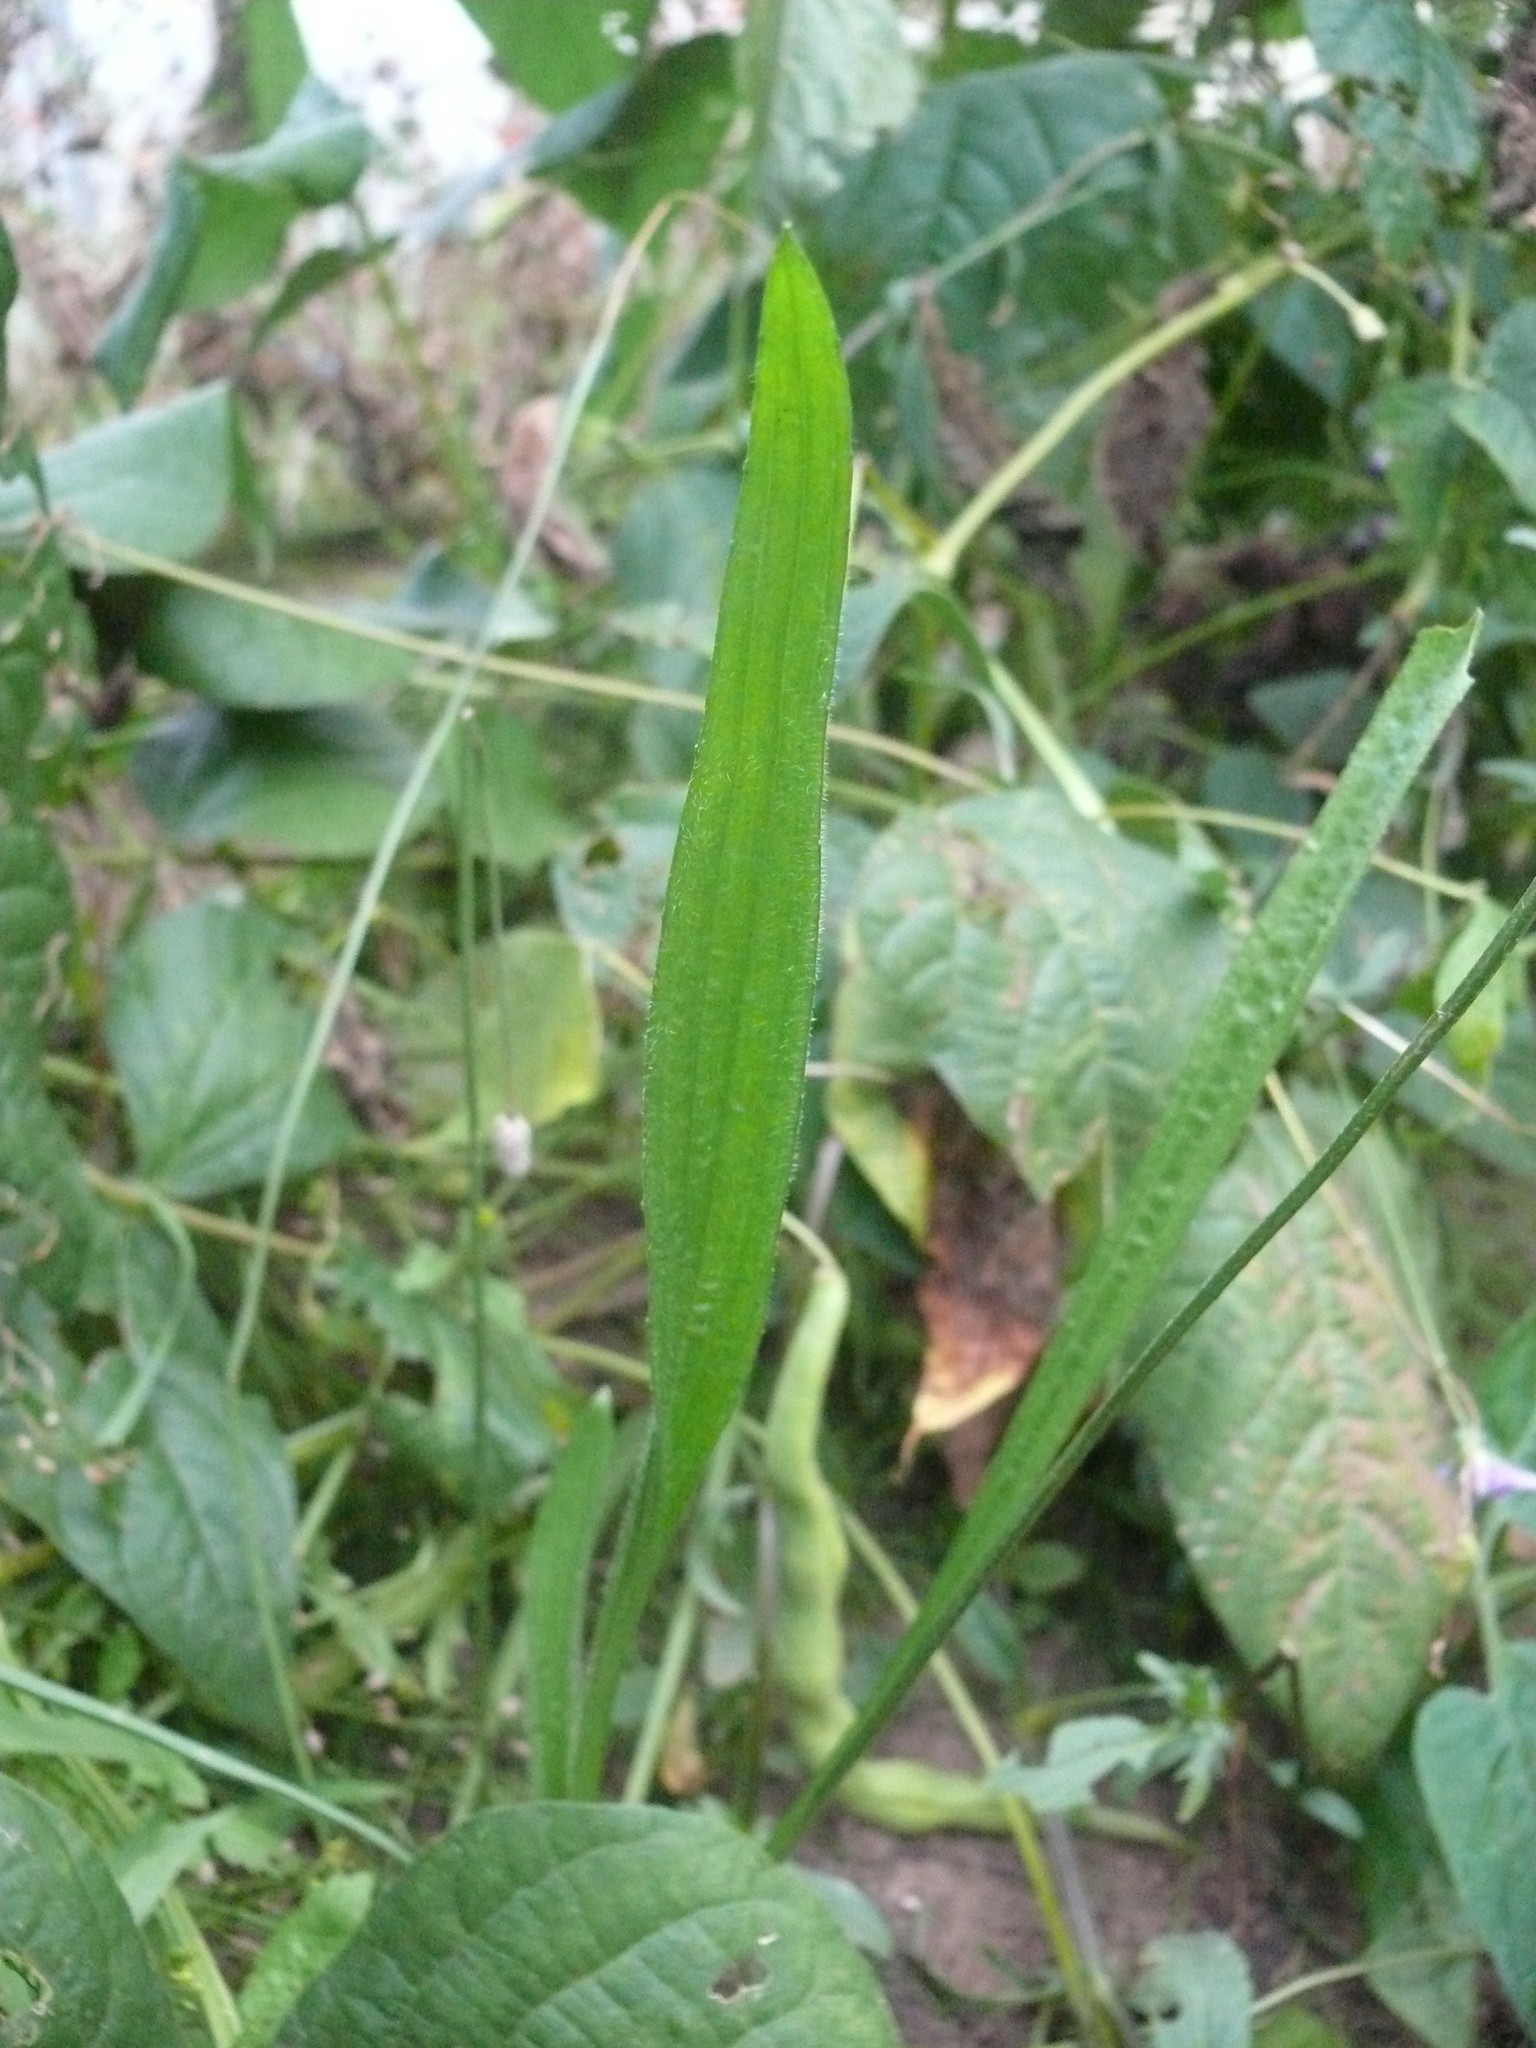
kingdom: Plantae
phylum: Tracheophyta
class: Magnoliopsida
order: Lamiales
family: Plantaginaceae
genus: Plantago
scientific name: Plantago lanceolata
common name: Ribwort plantain
